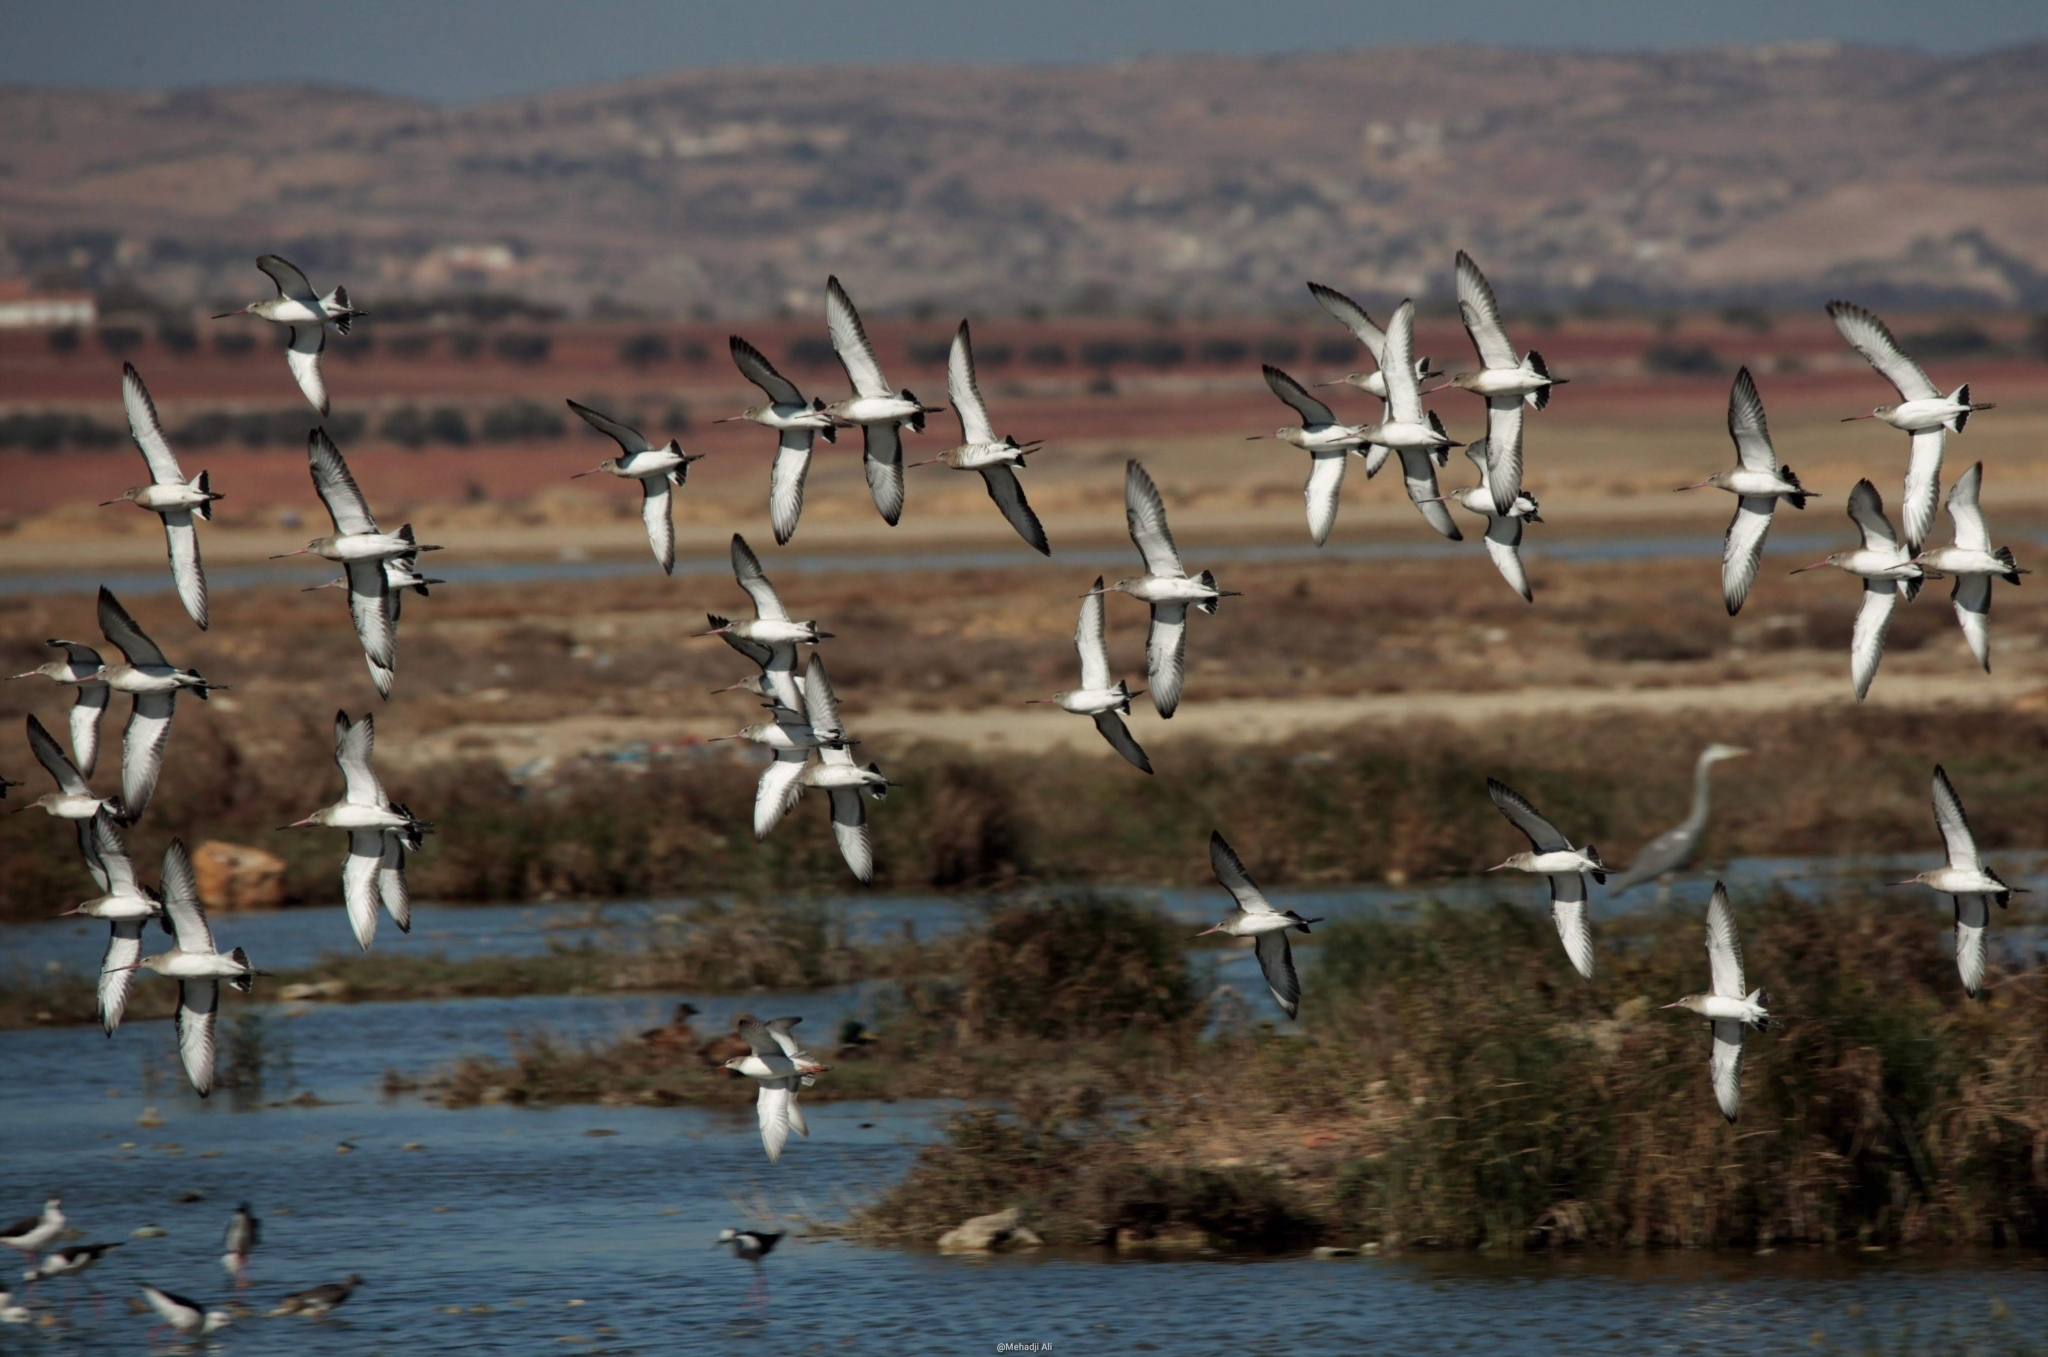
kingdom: Animalia
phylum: Chordata
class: Aves
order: Charadriiformes
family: Scolopacidae
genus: Limosa
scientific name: Limosa limosa
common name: Black-tailed godwit
